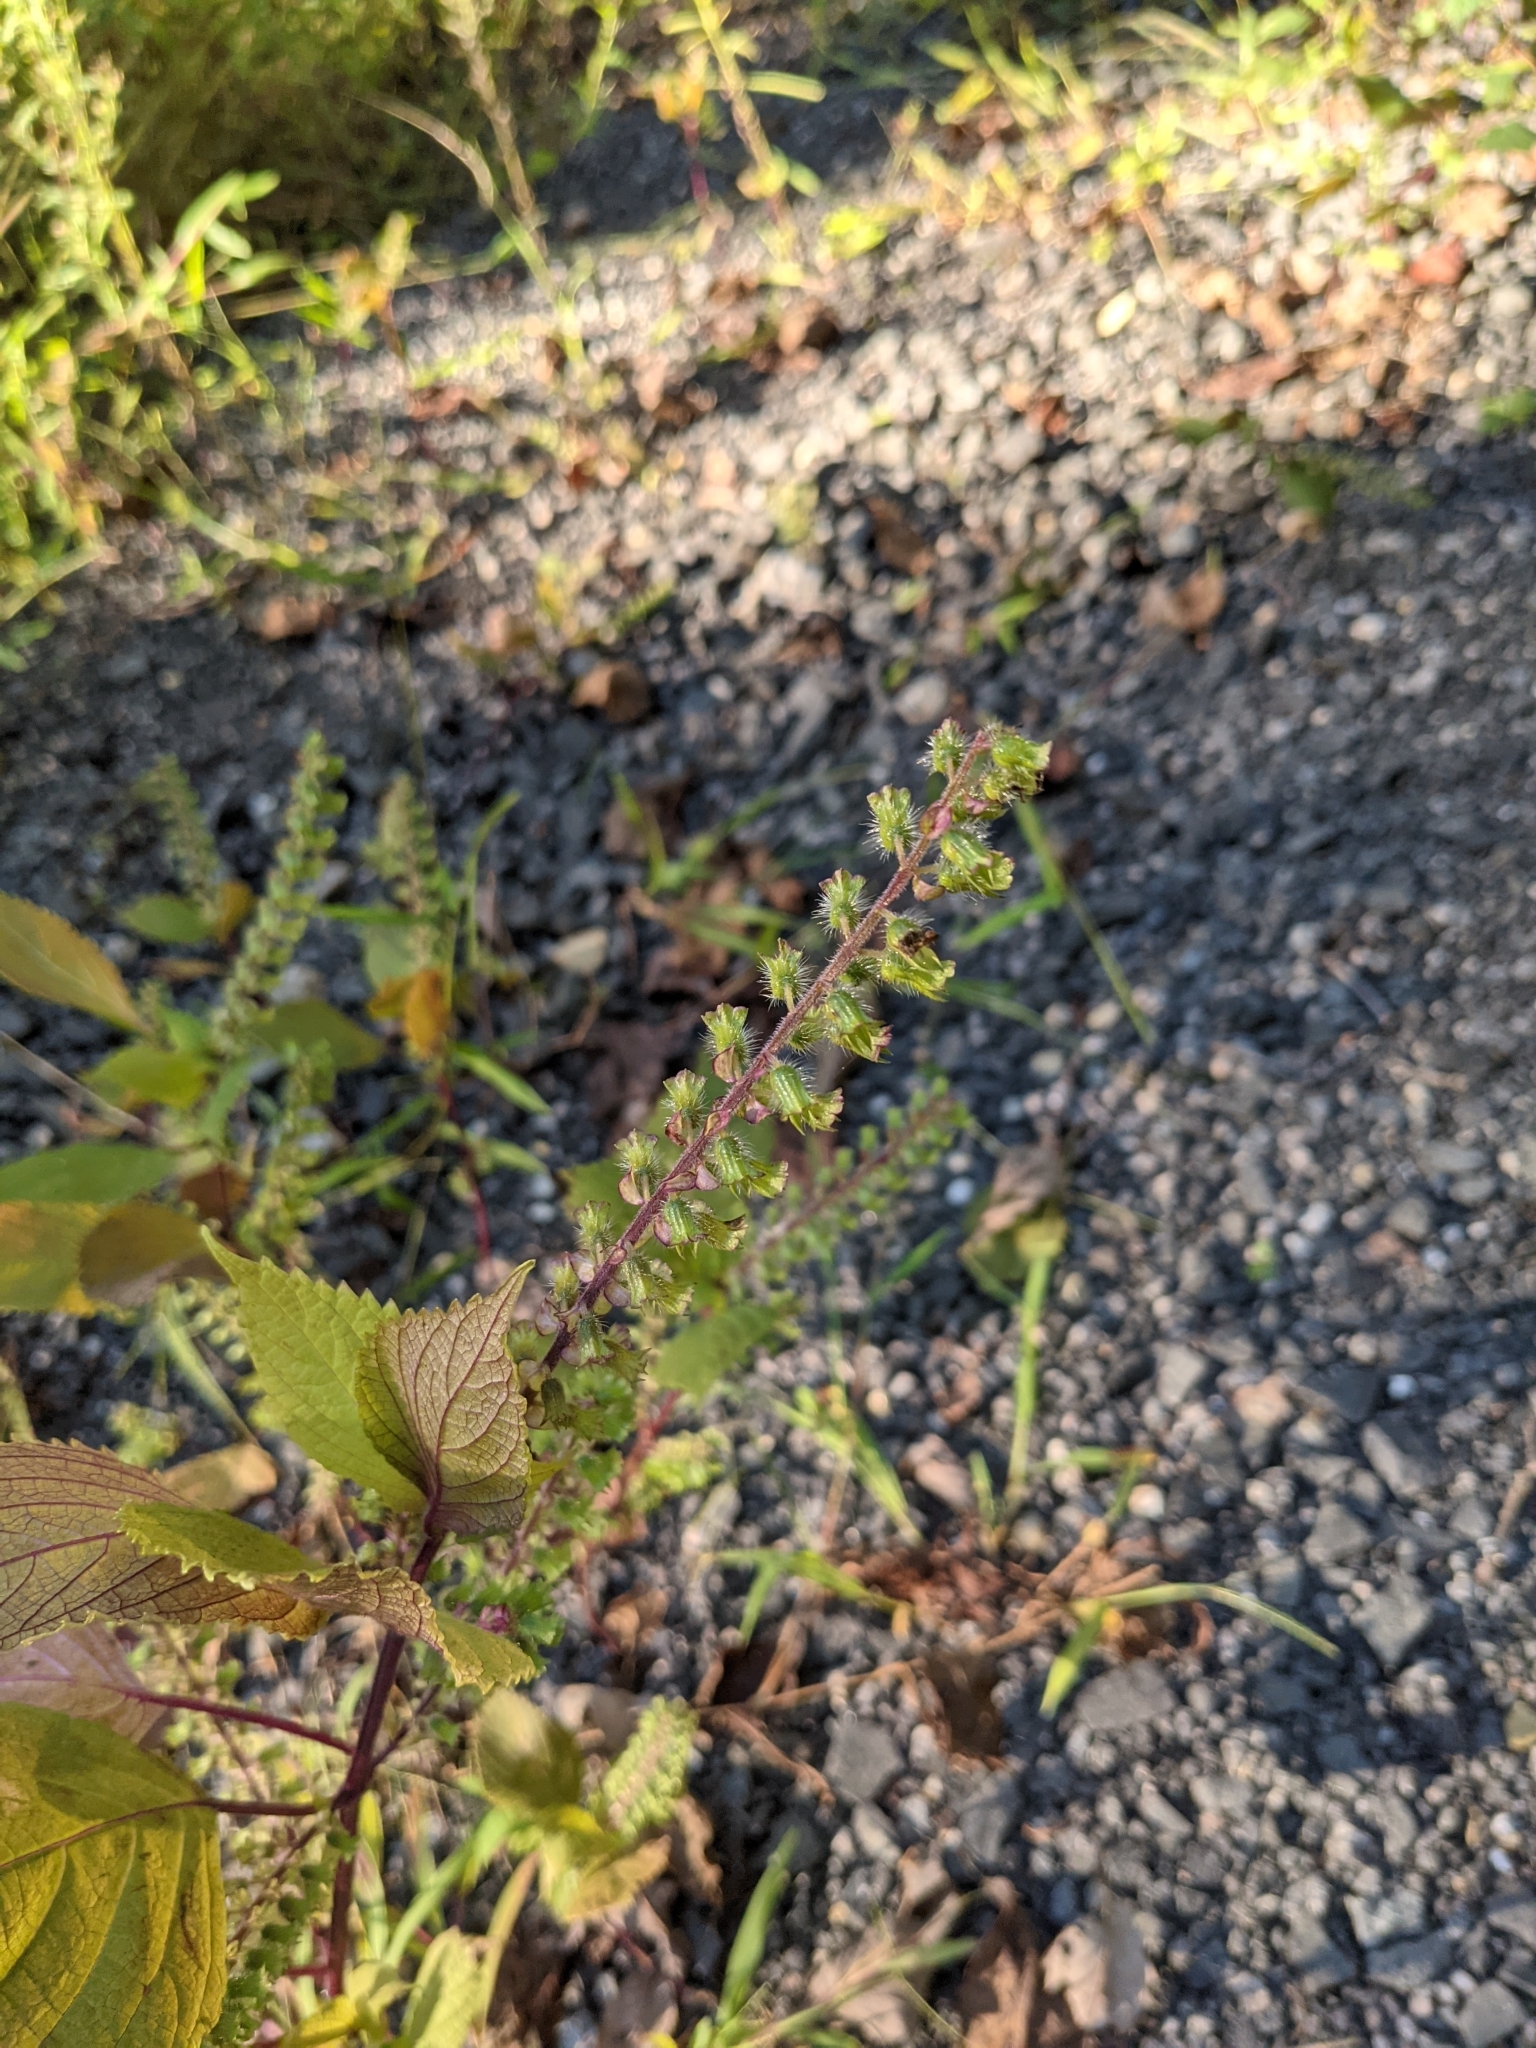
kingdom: Plantae
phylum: Tracheophyta
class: Magnoliopsida
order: Lamiales
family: Lamiaceae
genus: Perilla
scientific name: Perilla frutescens
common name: Perilla
